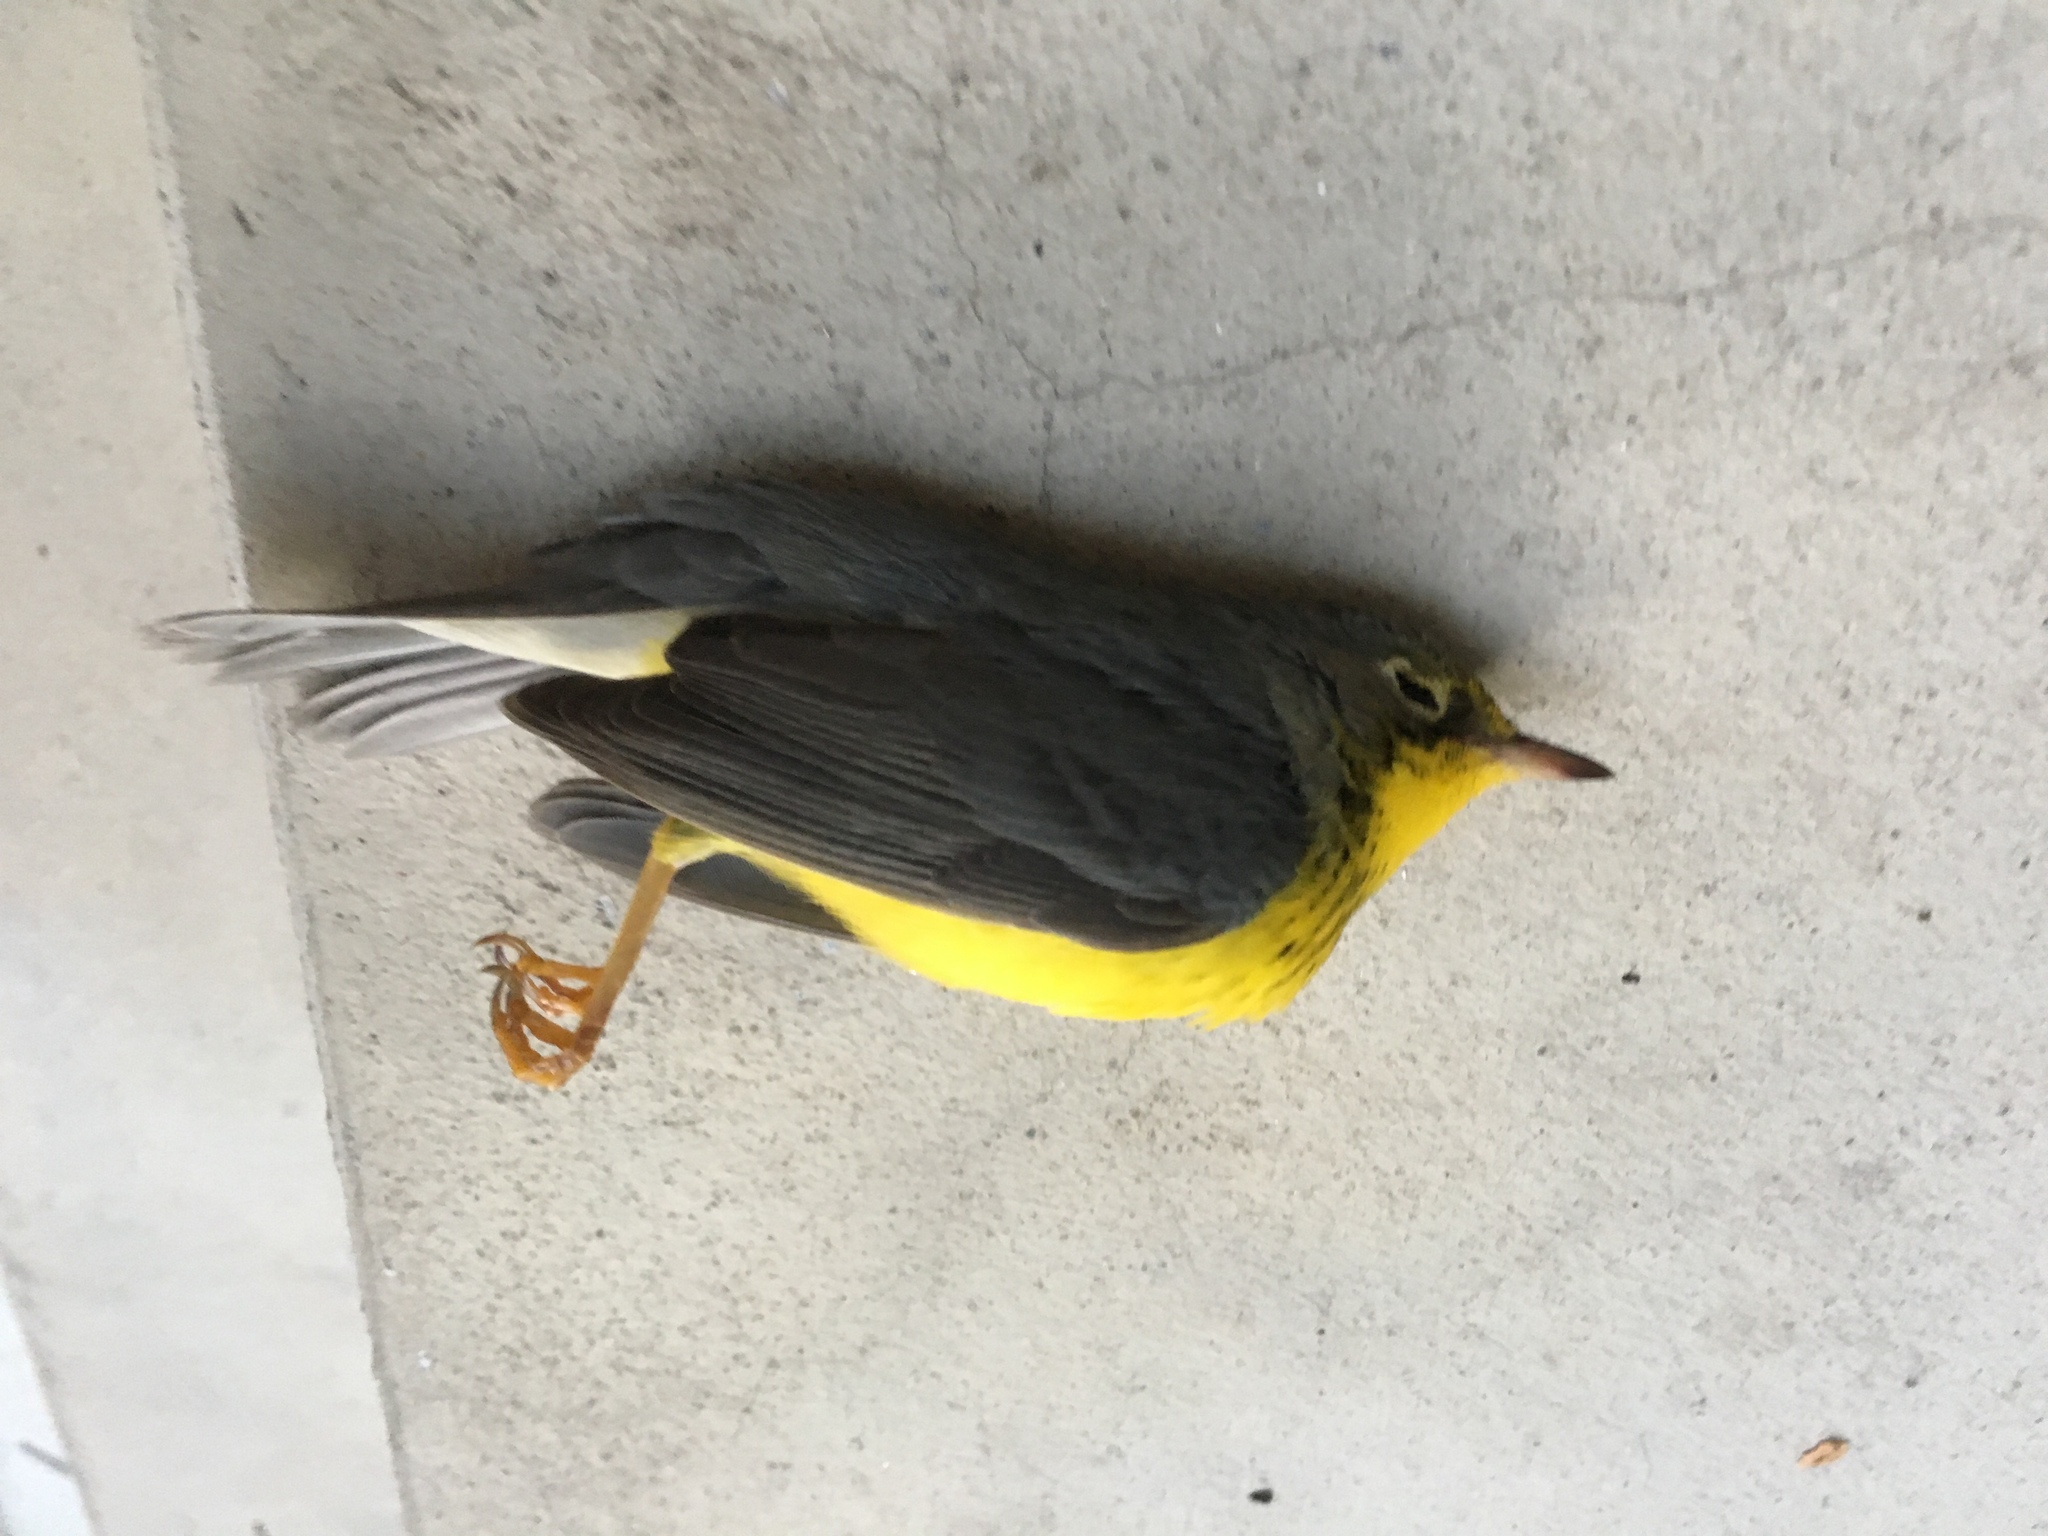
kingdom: Animalia
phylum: Chordata
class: Aves
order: Passeriformes
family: Parulidae
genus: Cardellina
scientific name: Cardellina canadensis
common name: Canada warbler
